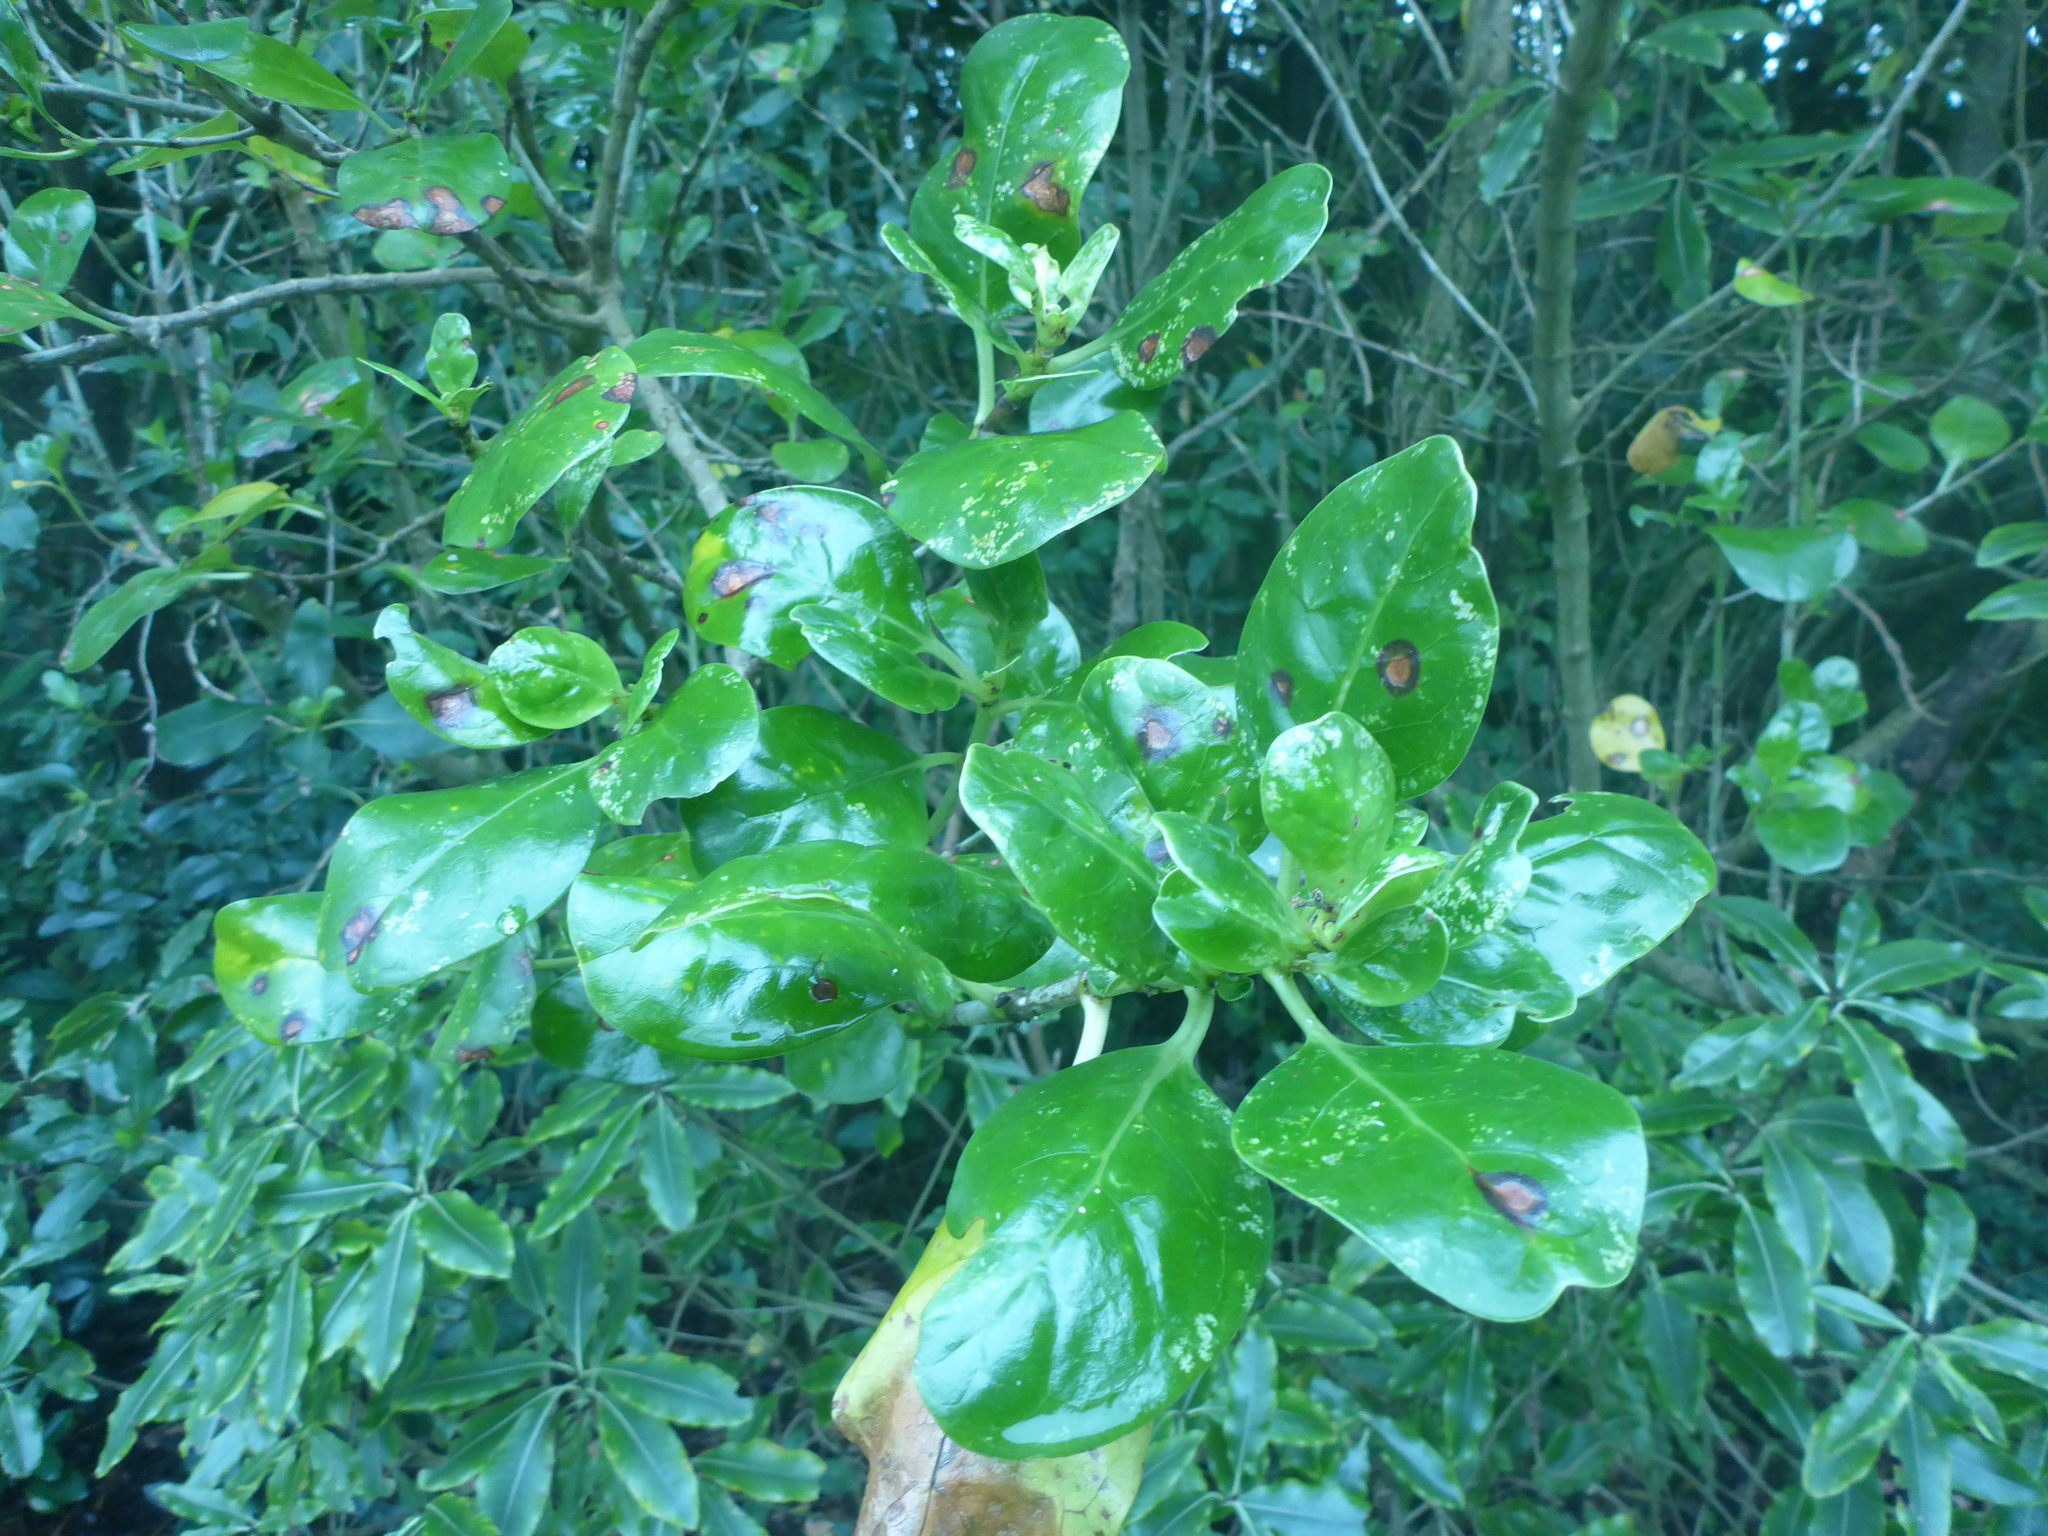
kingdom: Plantae
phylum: Tracheophyta
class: Magnoliopsida
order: Gentianales
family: Rubiaceae
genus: Coprosma
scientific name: Coprosma repens
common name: Tree bedstraw
